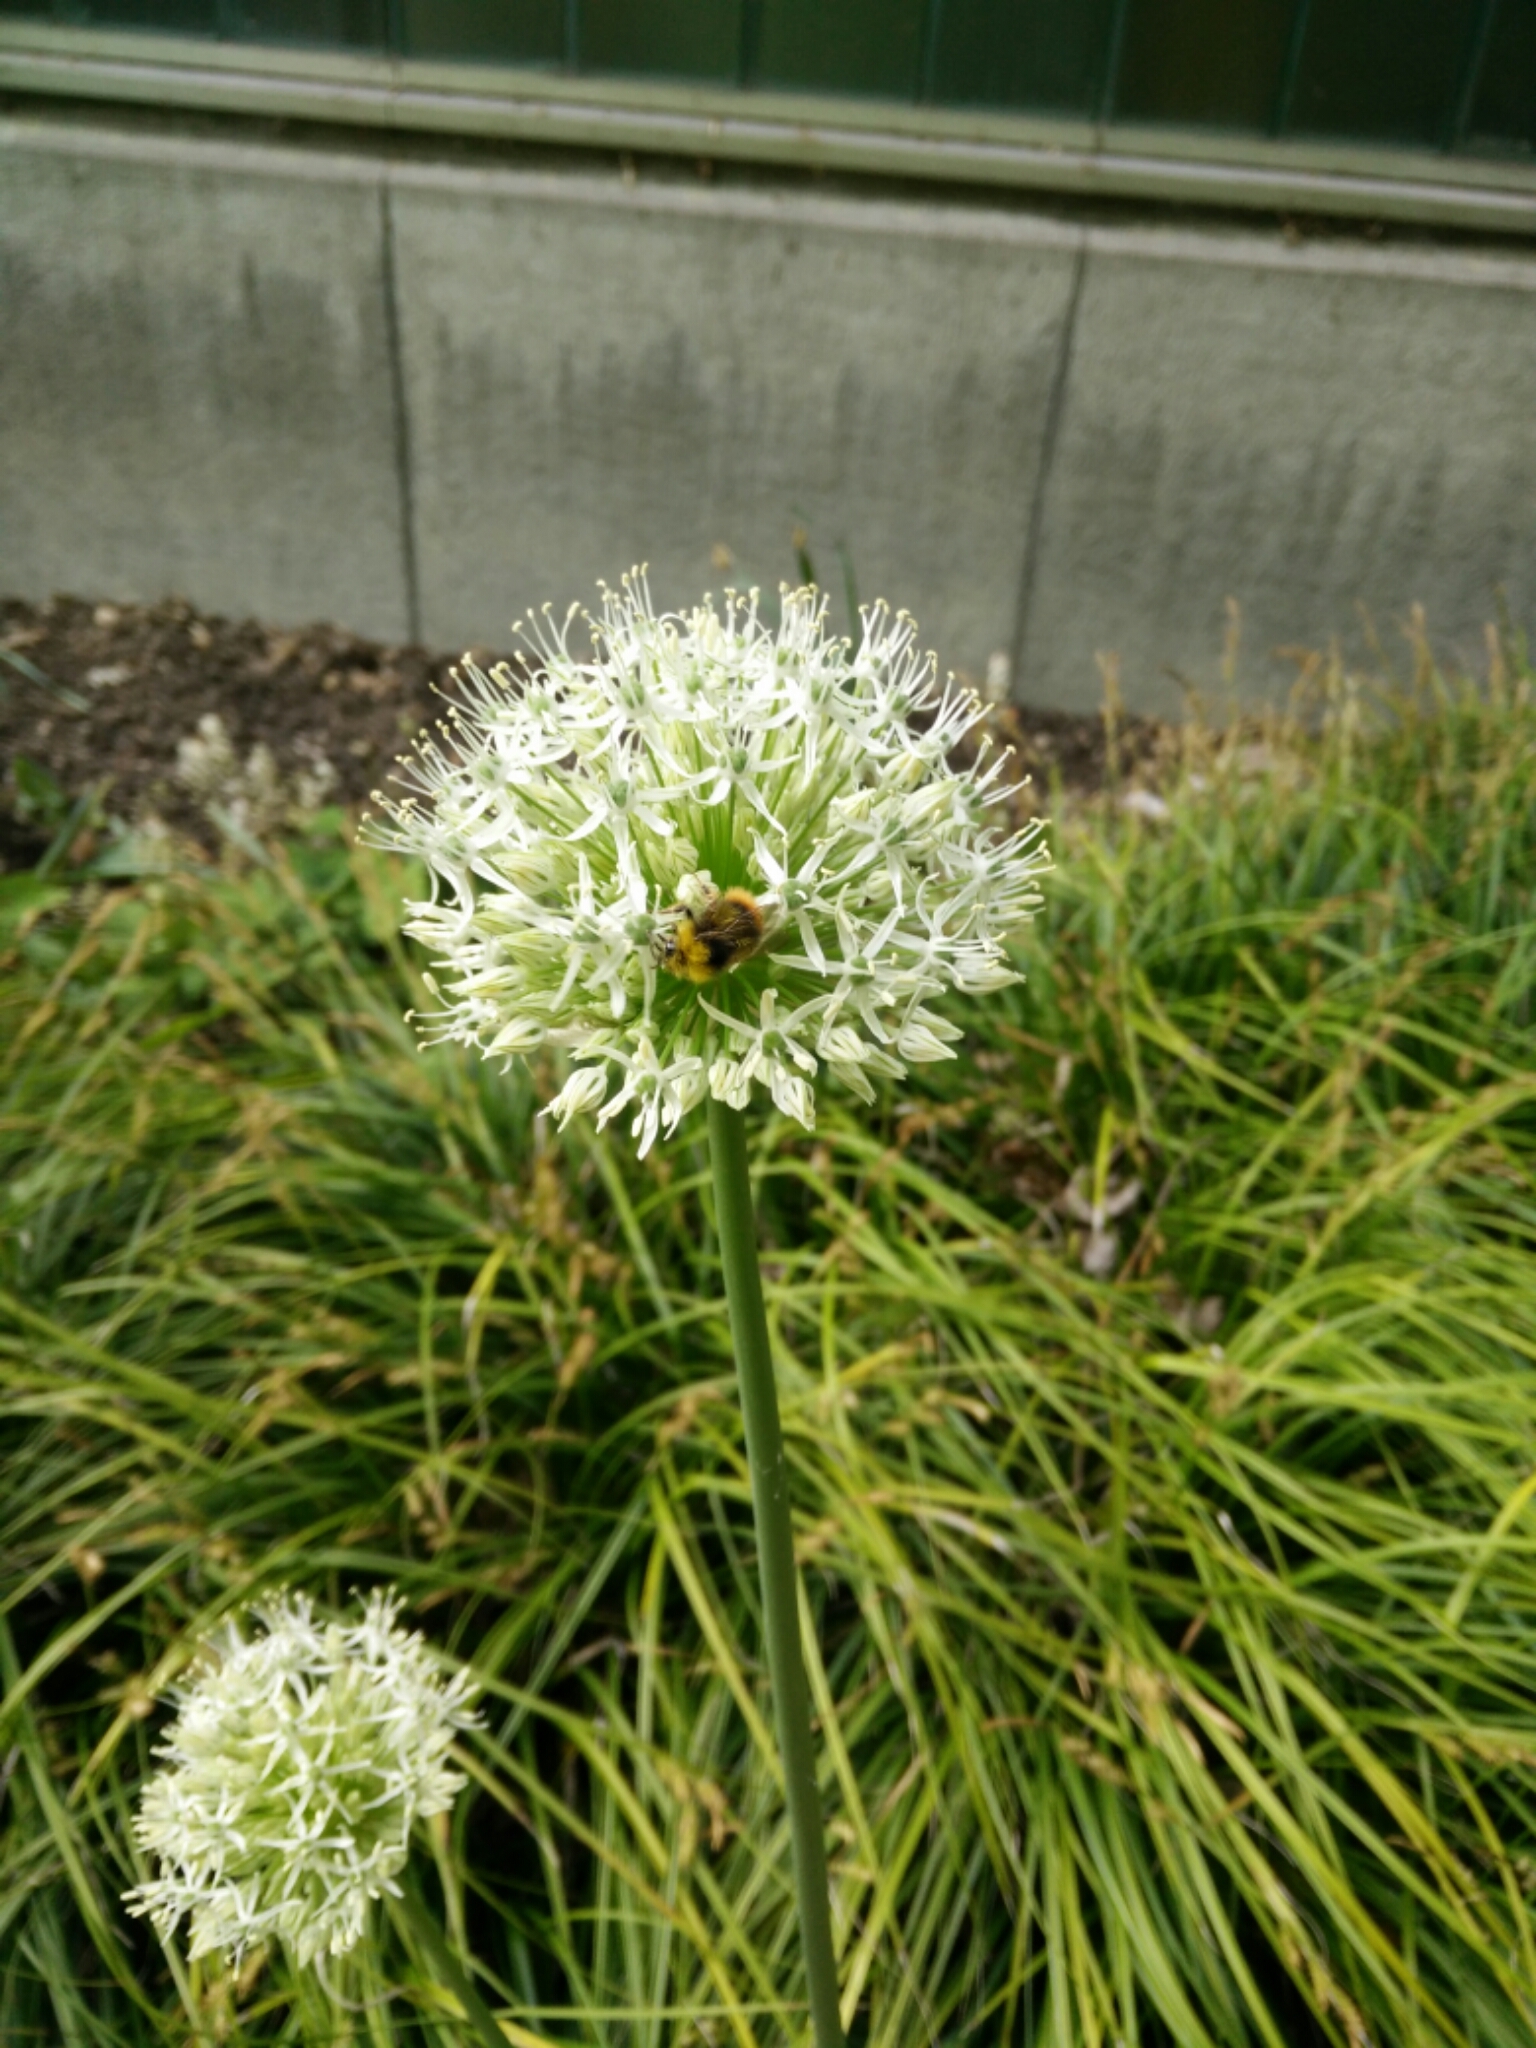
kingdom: Animalia
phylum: Arthropoda
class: Insecta
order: Hymenoptera
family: Apidae
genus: Bombus
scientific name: Bombus pratorum
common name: Early humble-bee
